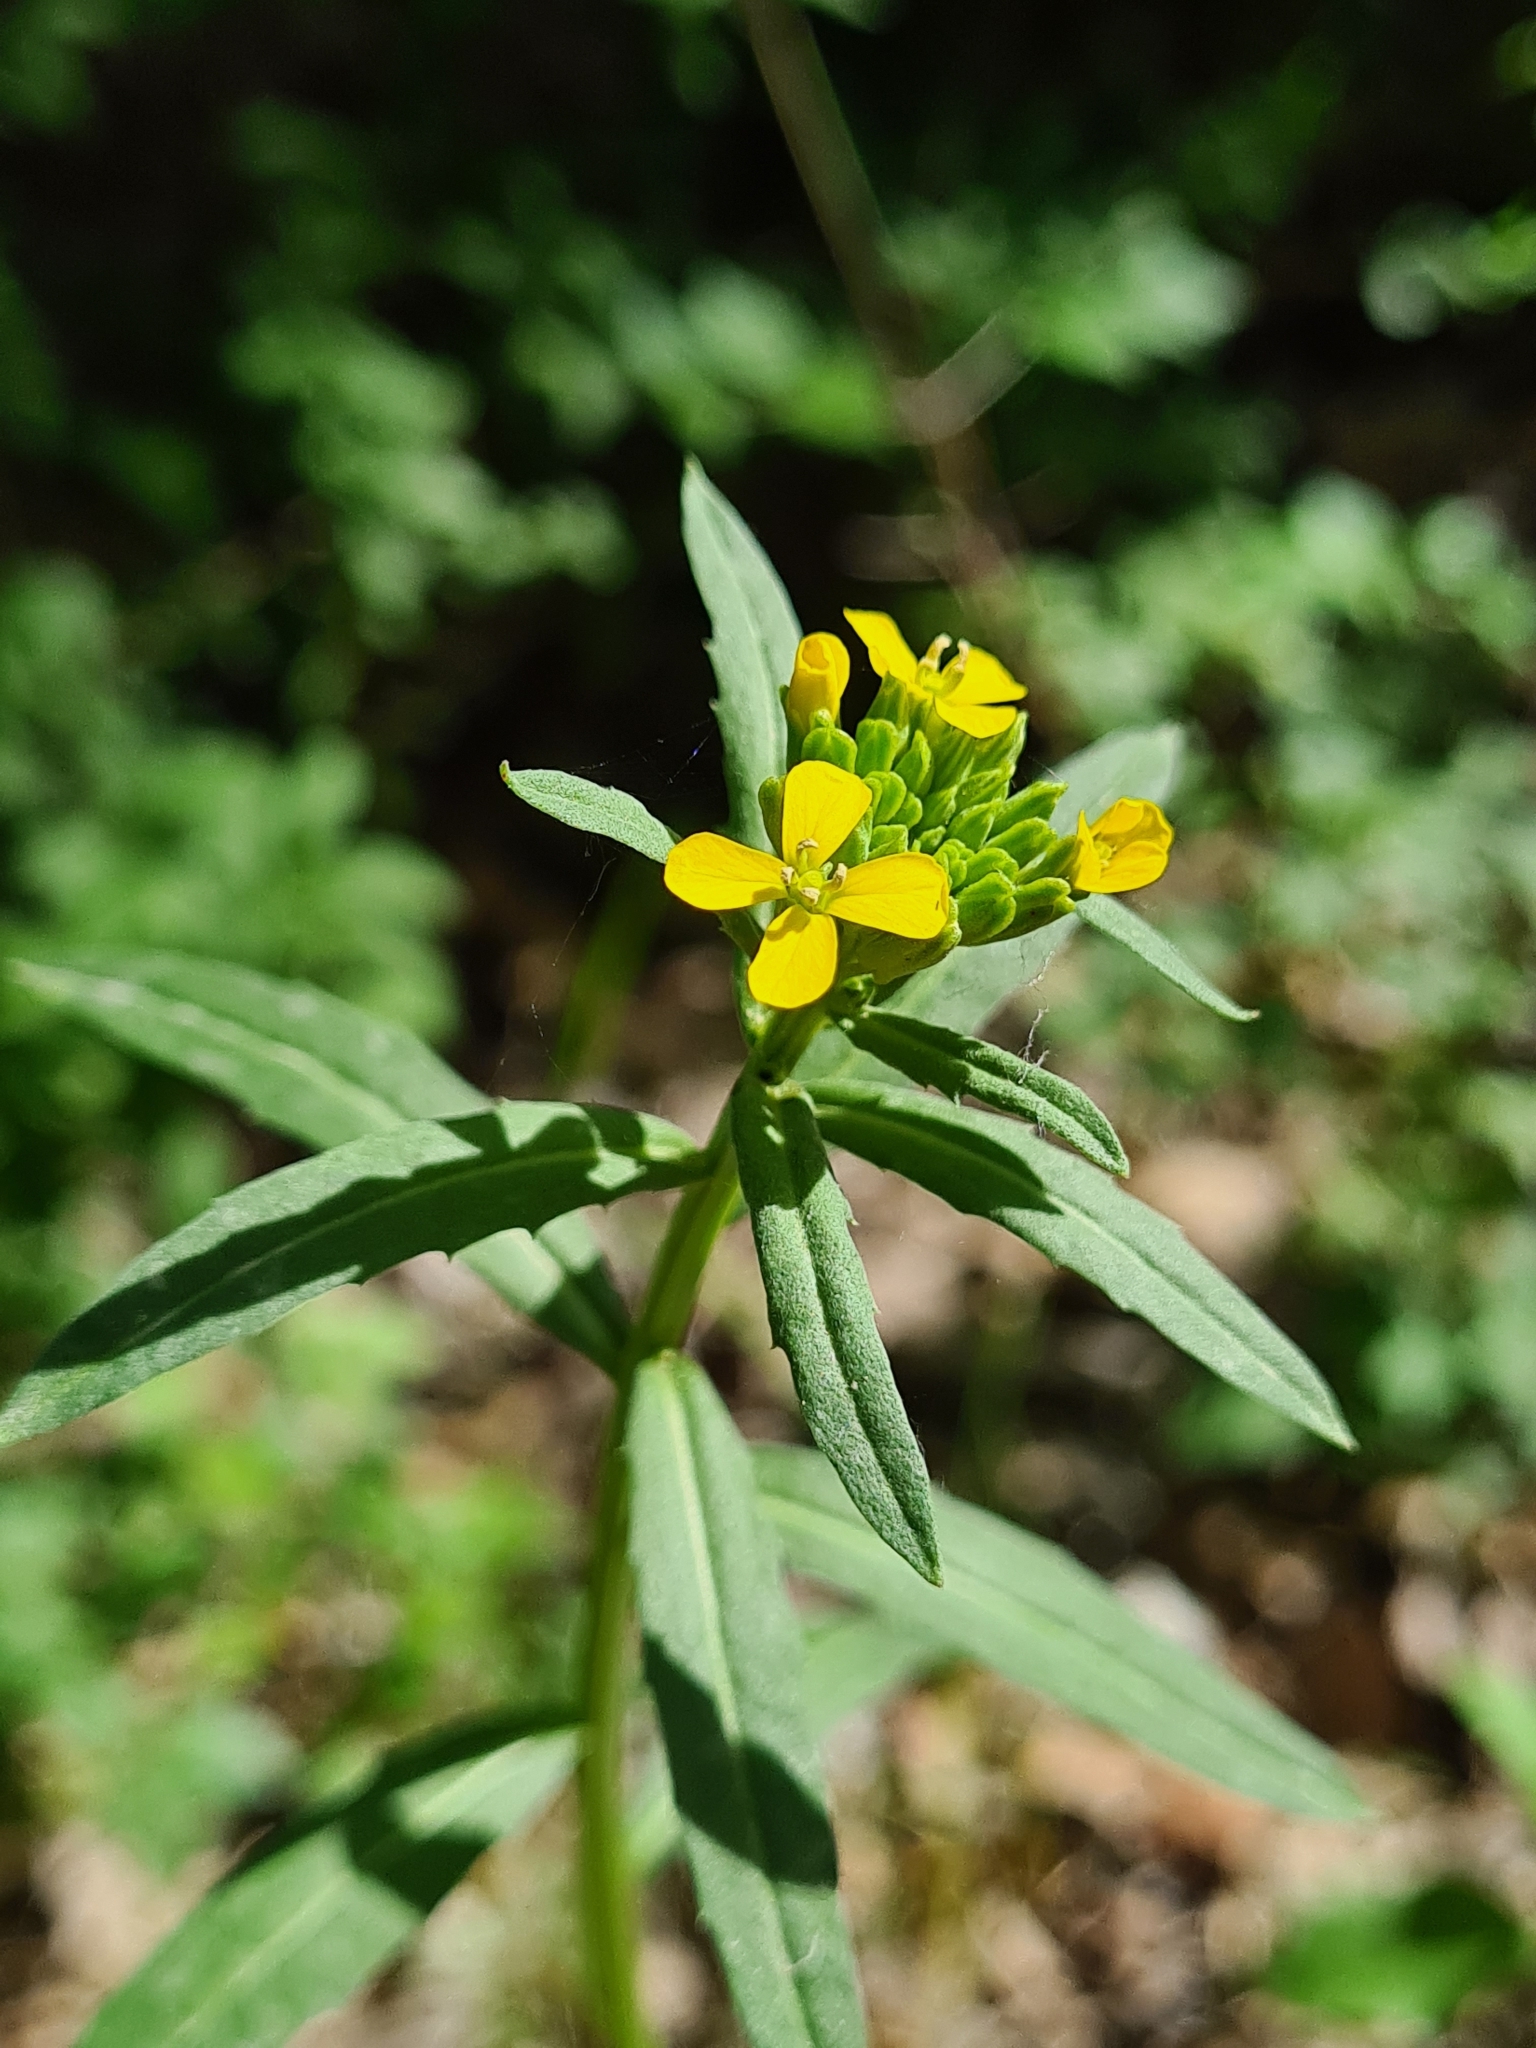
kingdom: Plantae
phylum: Tracheophyta
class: Magnoliopsida
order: Brassicales
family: Brassicaceae
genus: Erysimum
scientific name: Erysimum cheiranthoides
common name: Treacle mustard
